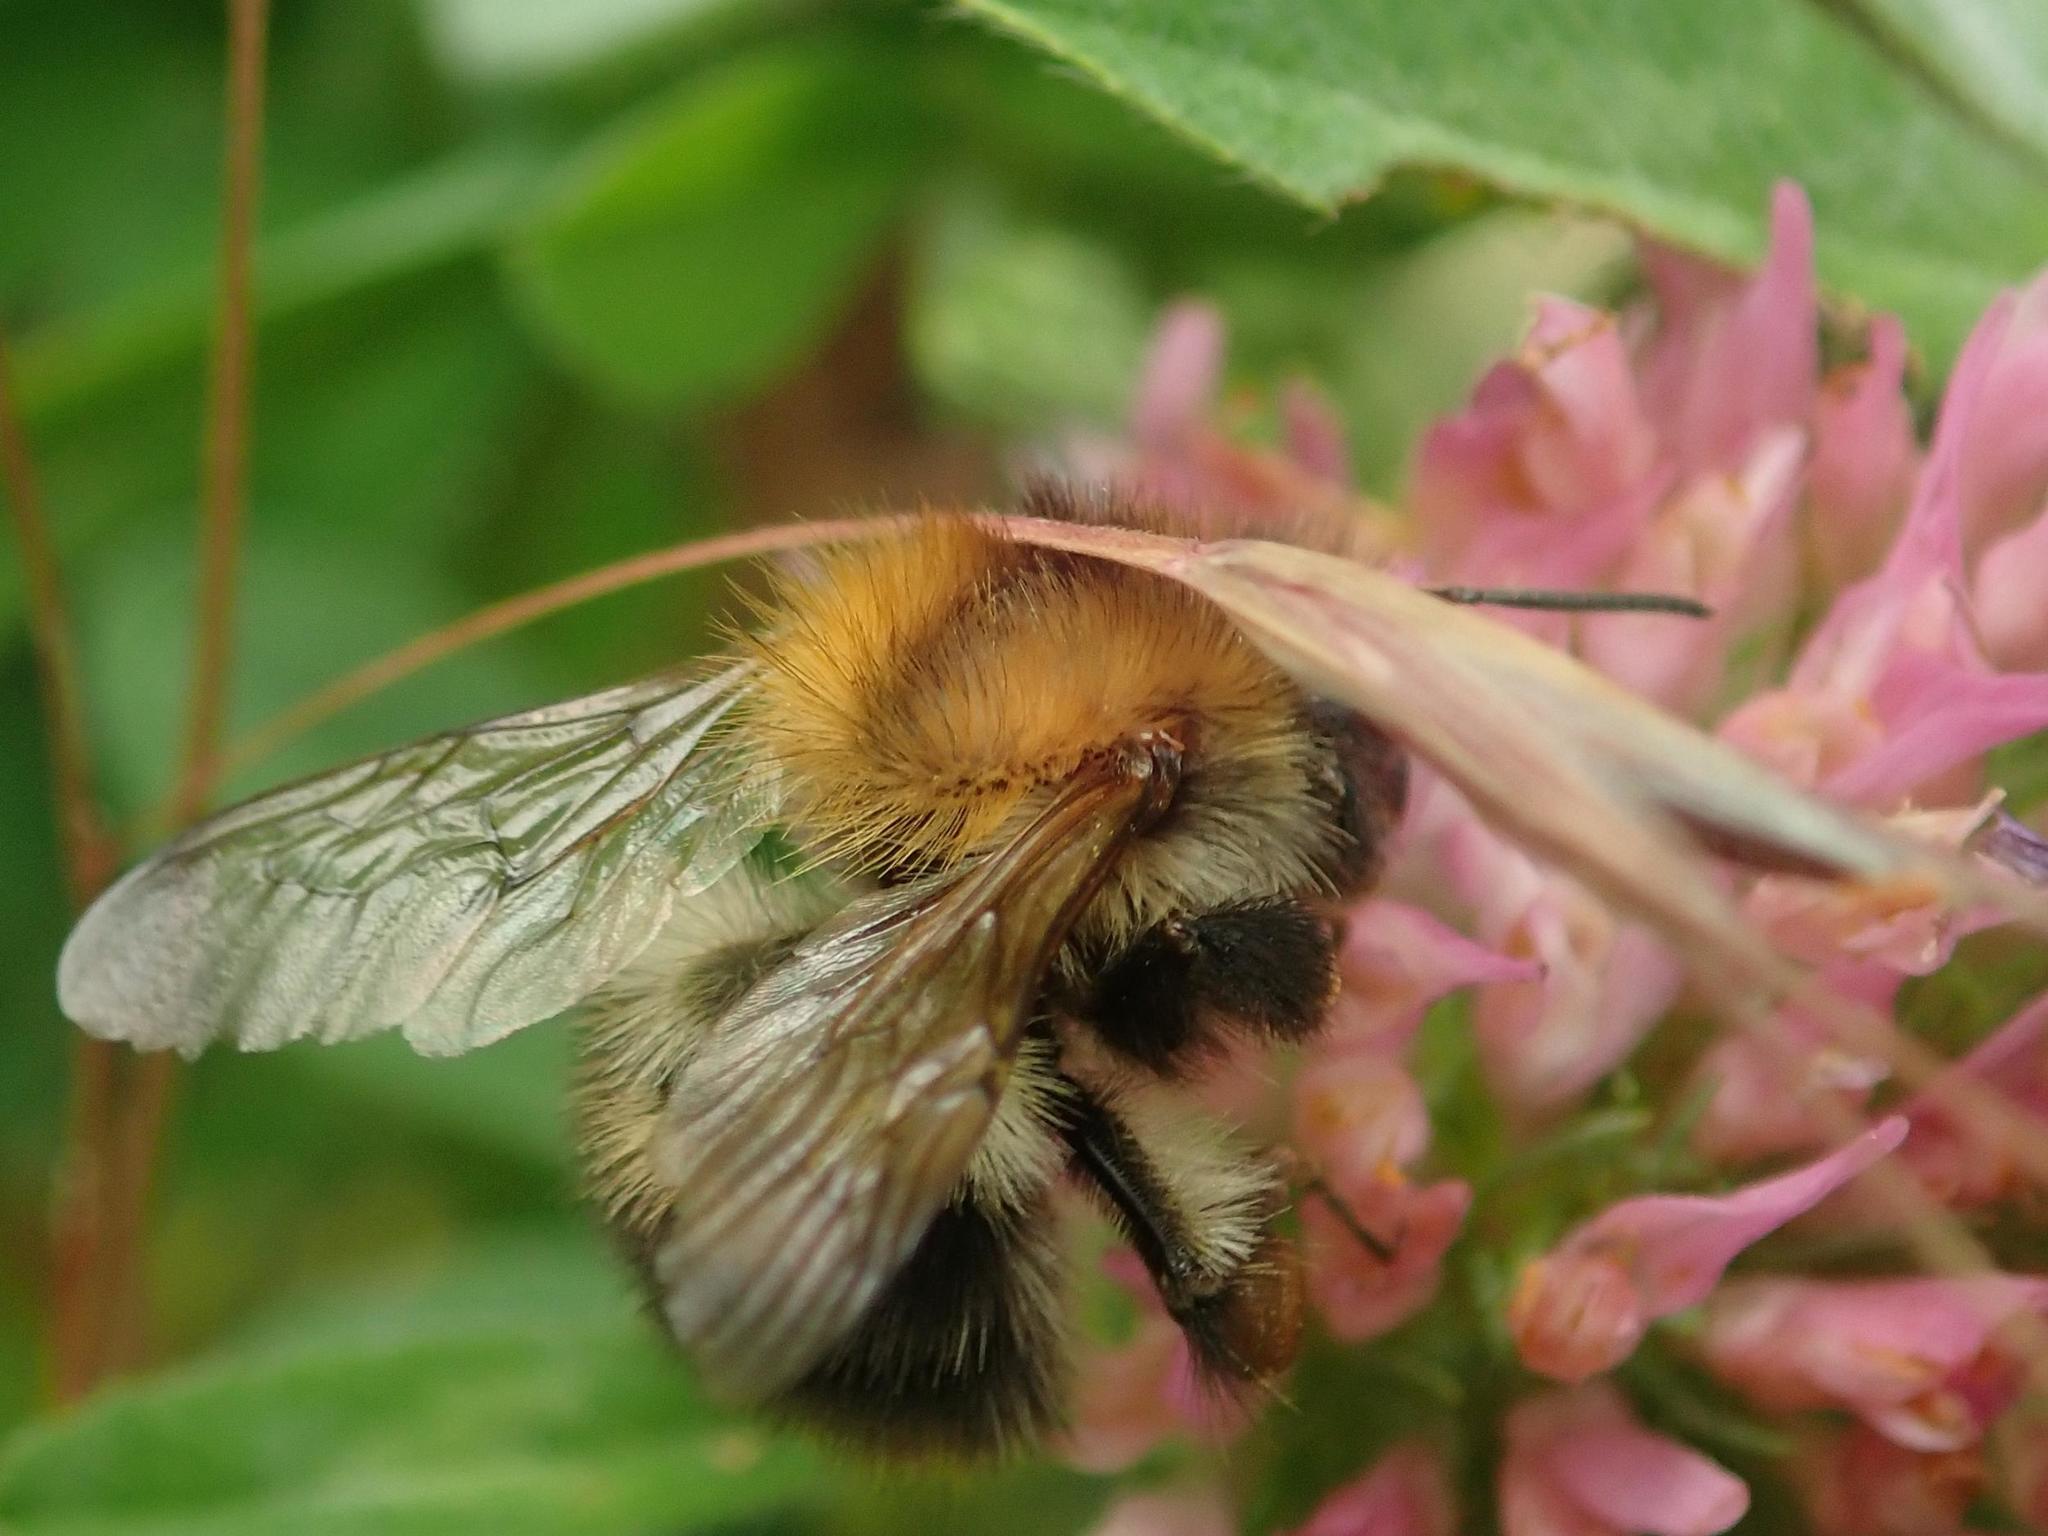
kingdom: Animalia
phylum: Arthropoda
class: Insecta
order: Hymenoptera
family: Apidae
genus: Bombus
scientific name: Bombus pascuorum
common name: Common carder bee
